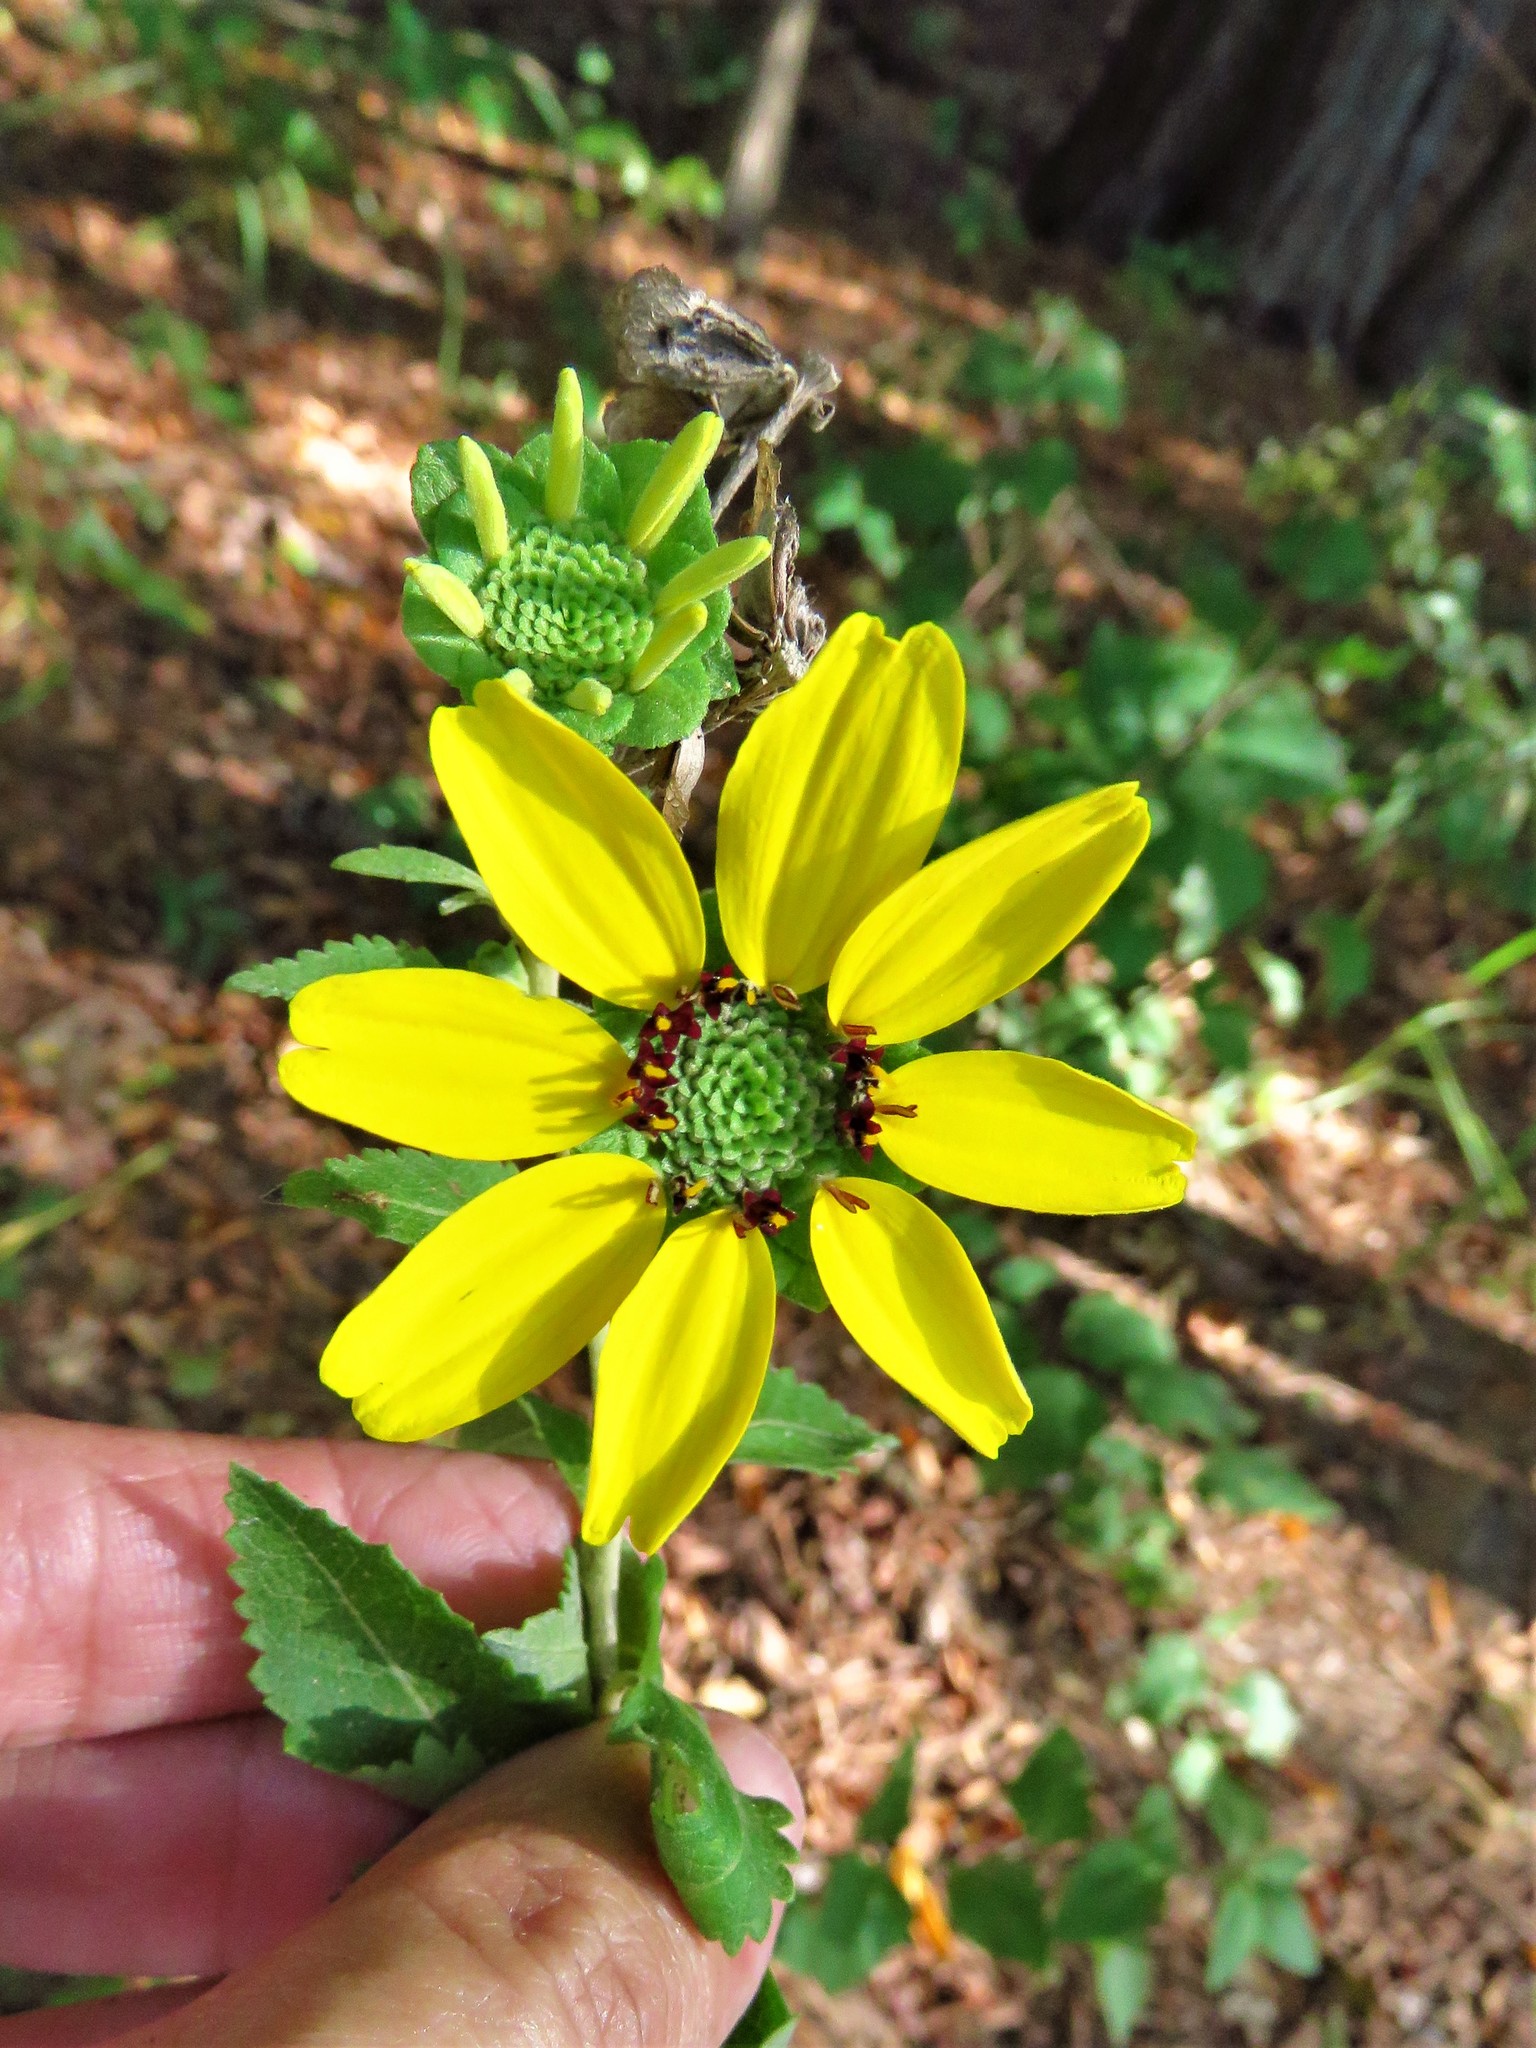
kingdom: Plantae
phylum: Tracheophyta
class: Magnoliopsida
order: Asterales
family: Asteraceae
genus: Berlandiera
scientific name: Berlandiera pumila
